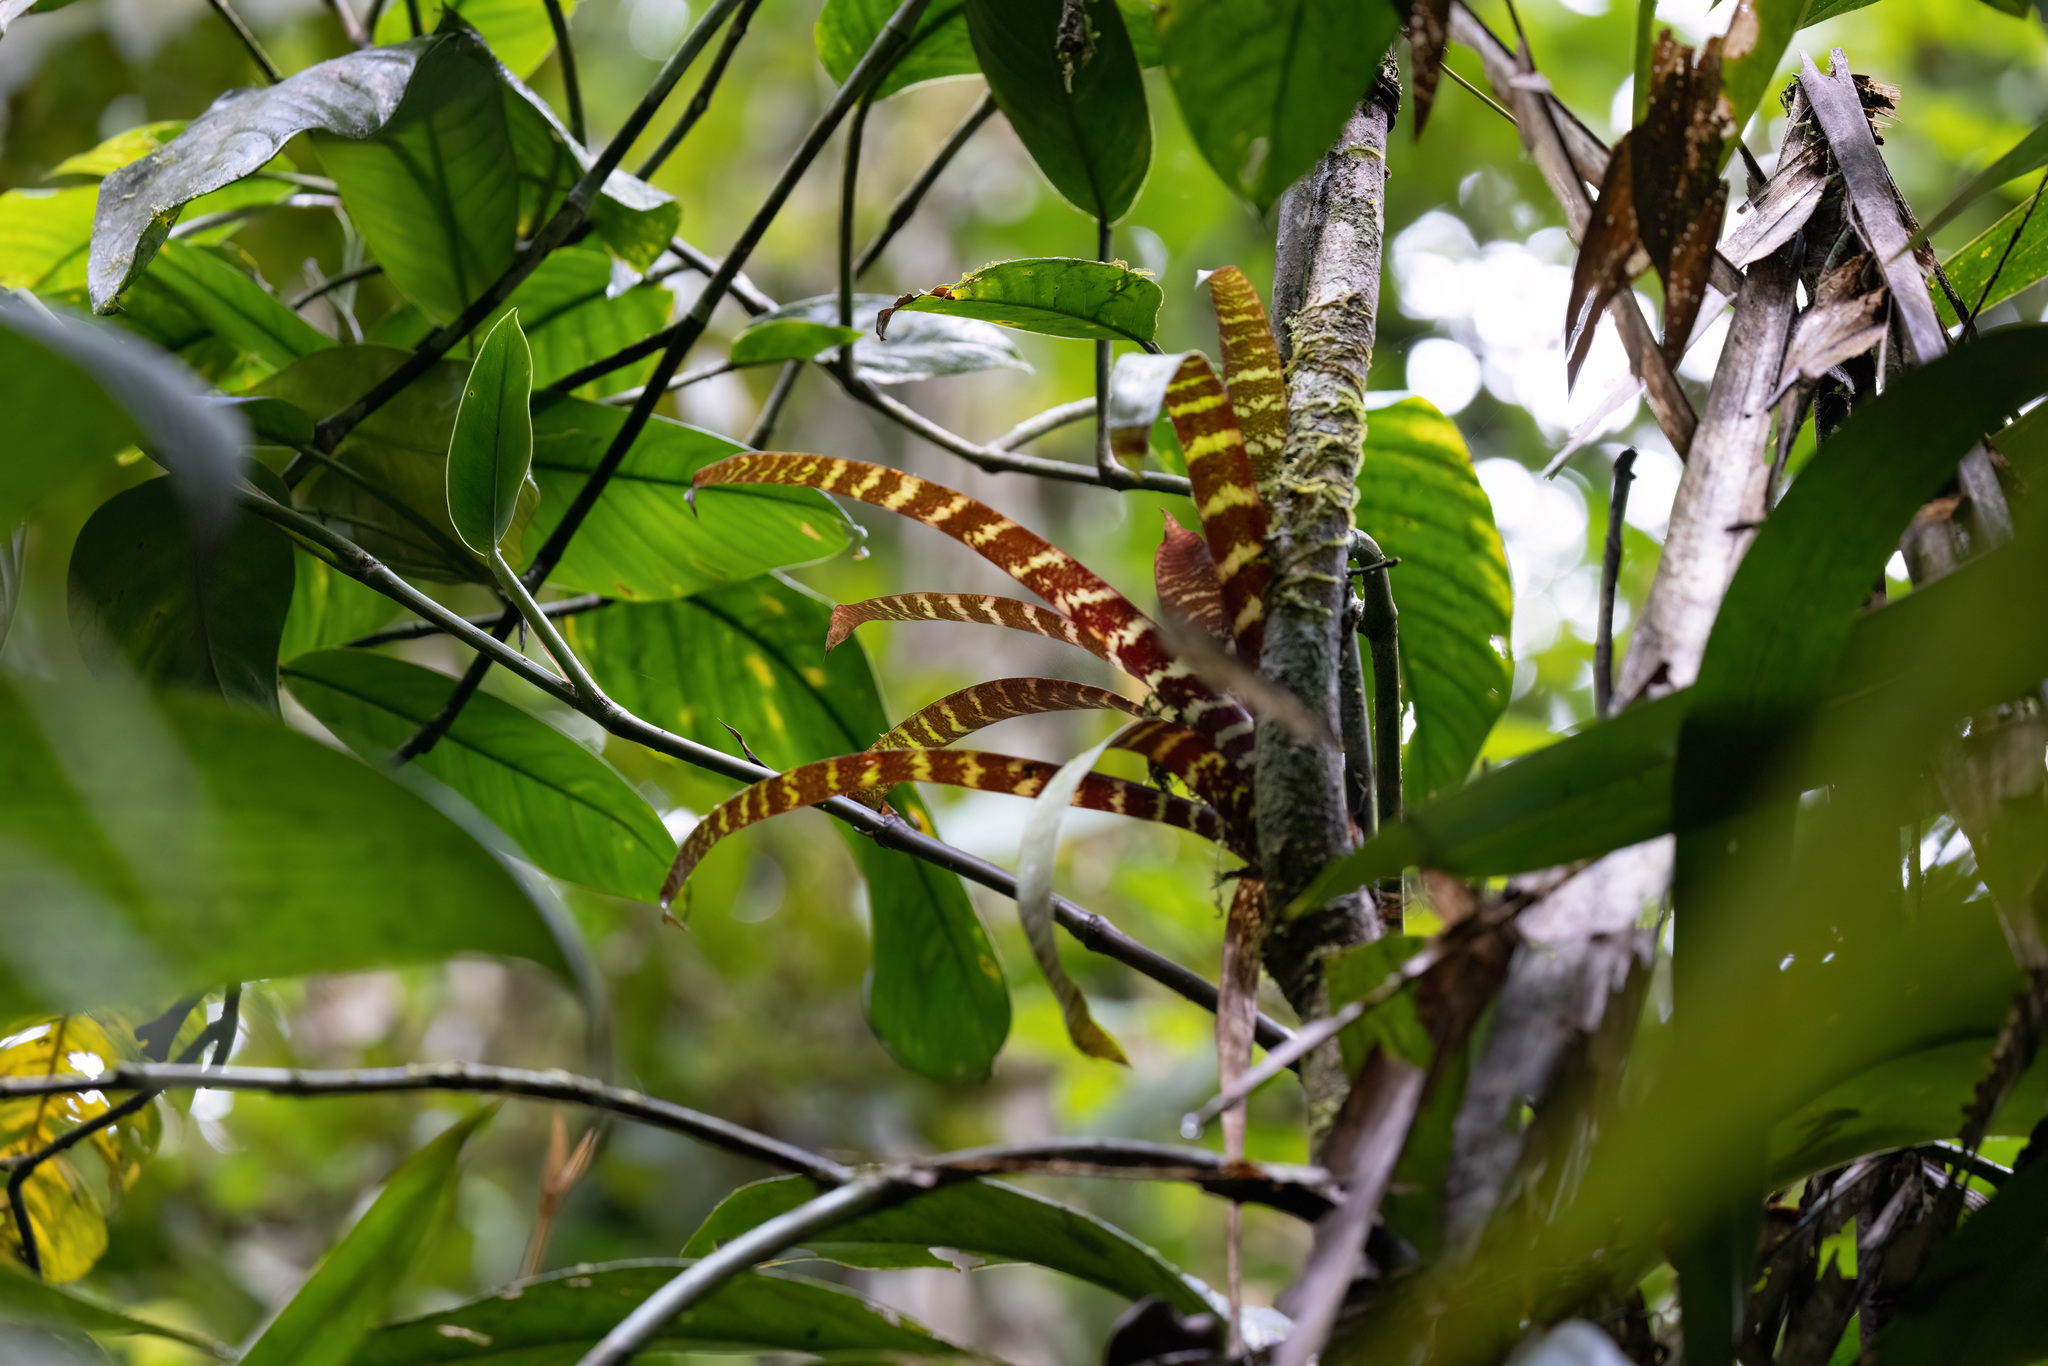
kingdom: Plantae
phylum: Tracheophyta
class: Liliopsida
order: Poales
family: Bromeliaceae
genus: Guzmania
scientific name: Guzmania musaica
